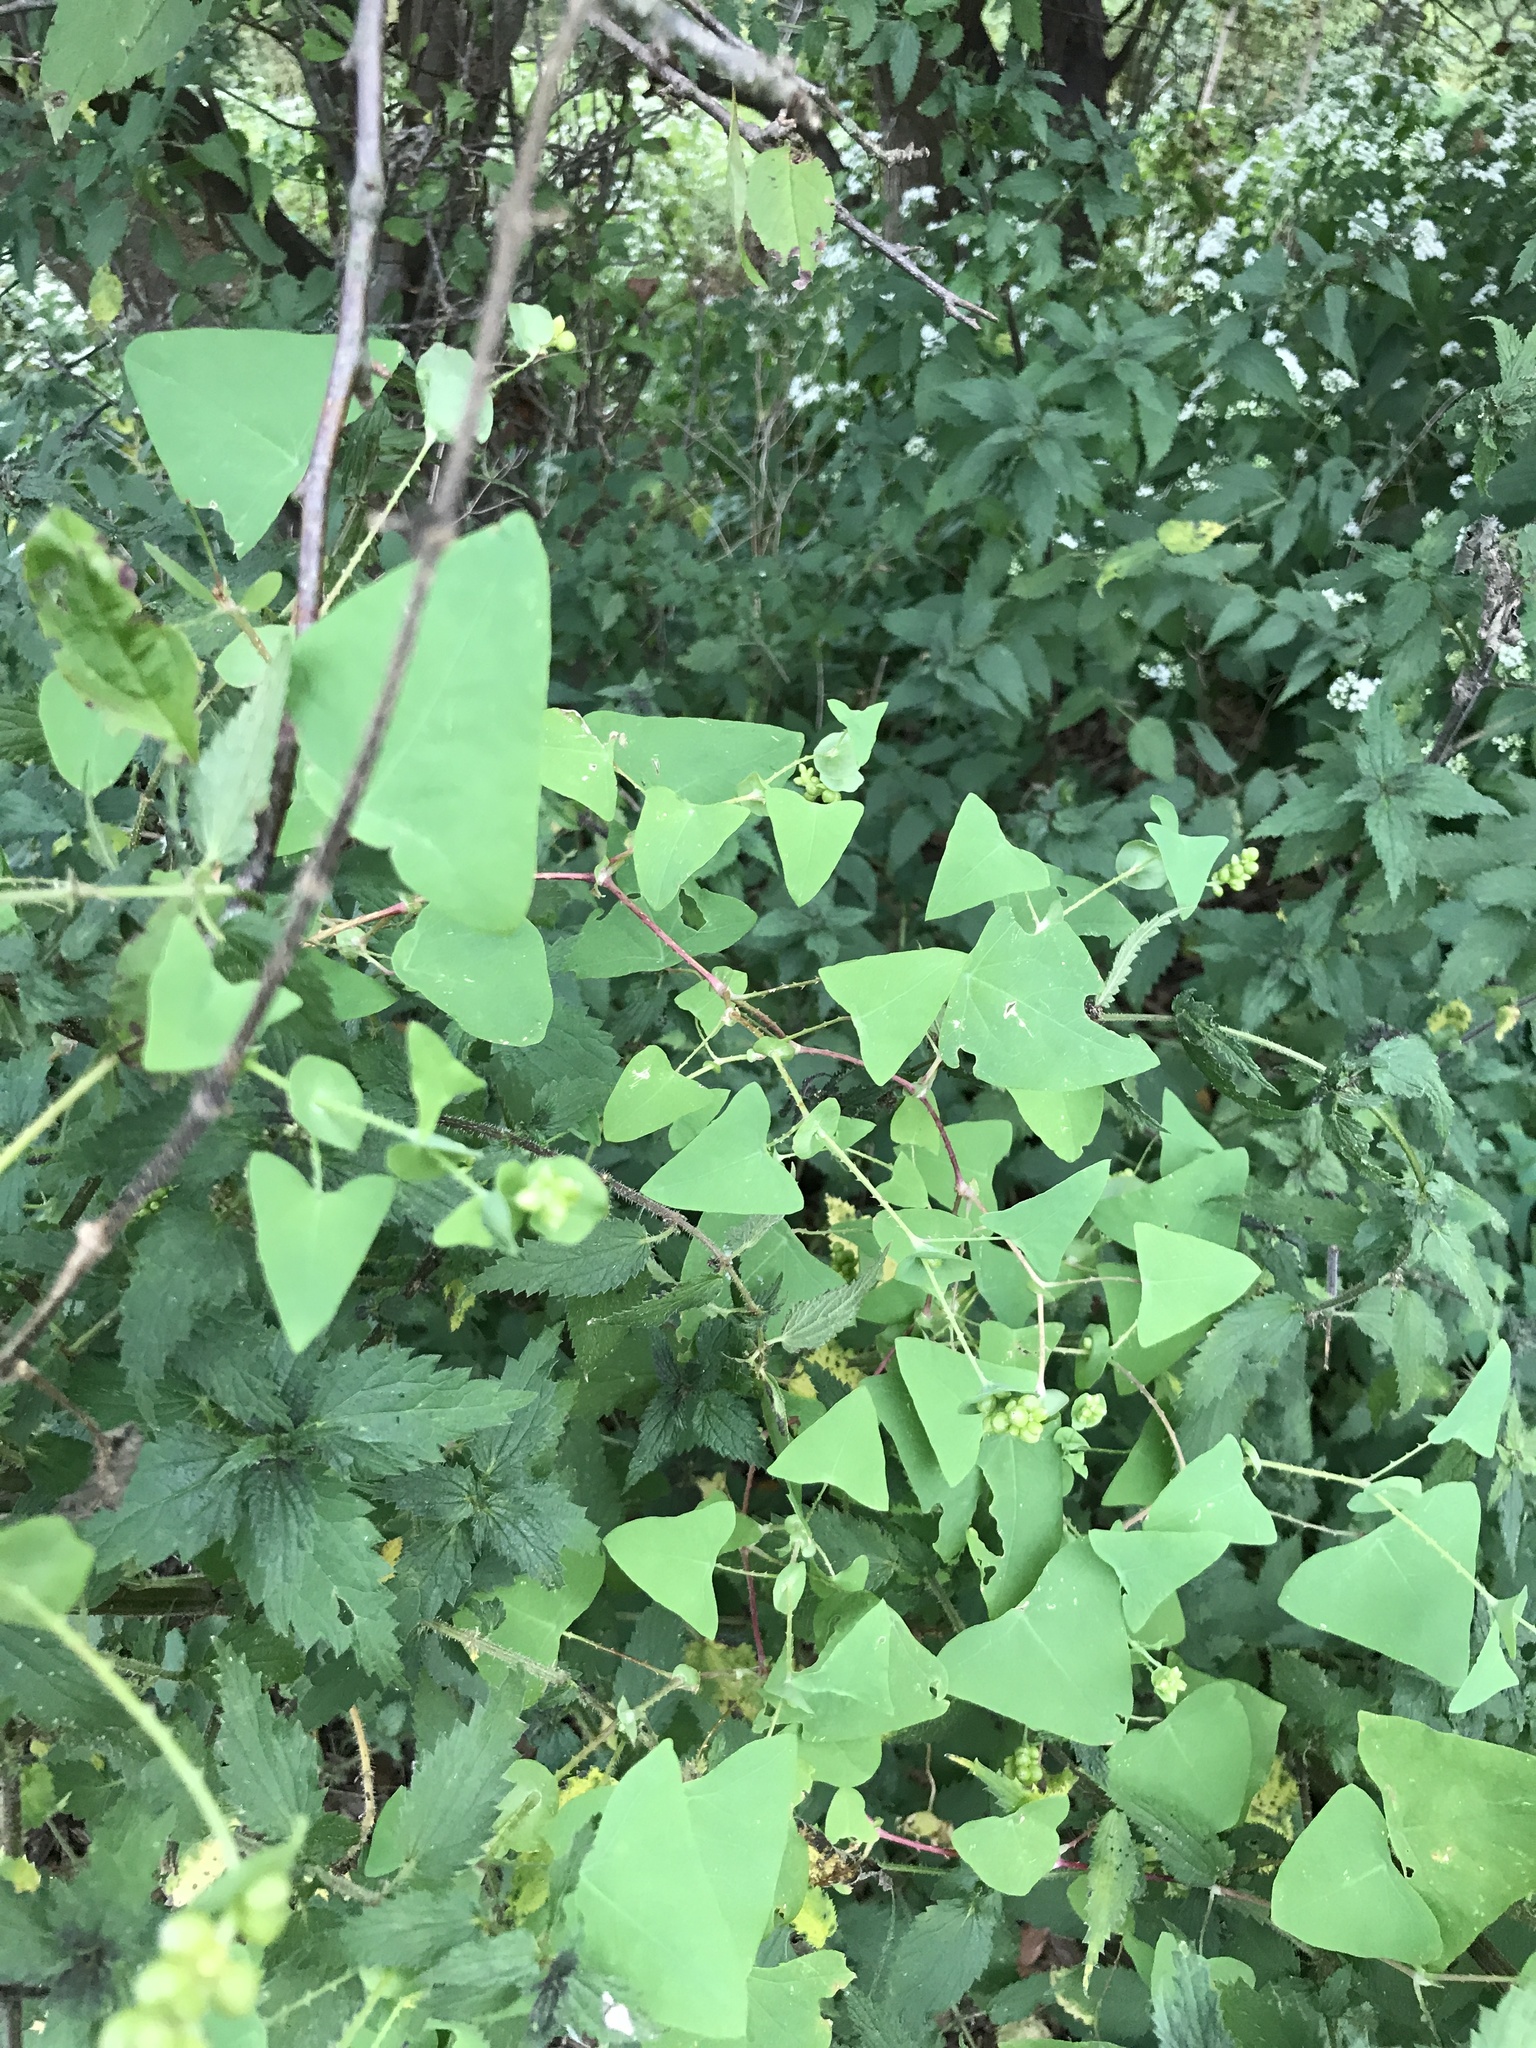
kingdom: Plantae
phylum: Tracheophyta
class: Magnoliopsida
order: Caryophyllales
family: Polygonaceae
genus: Persicaria
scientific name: Persicaria perfoliata
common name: Asiatic tearthumb
